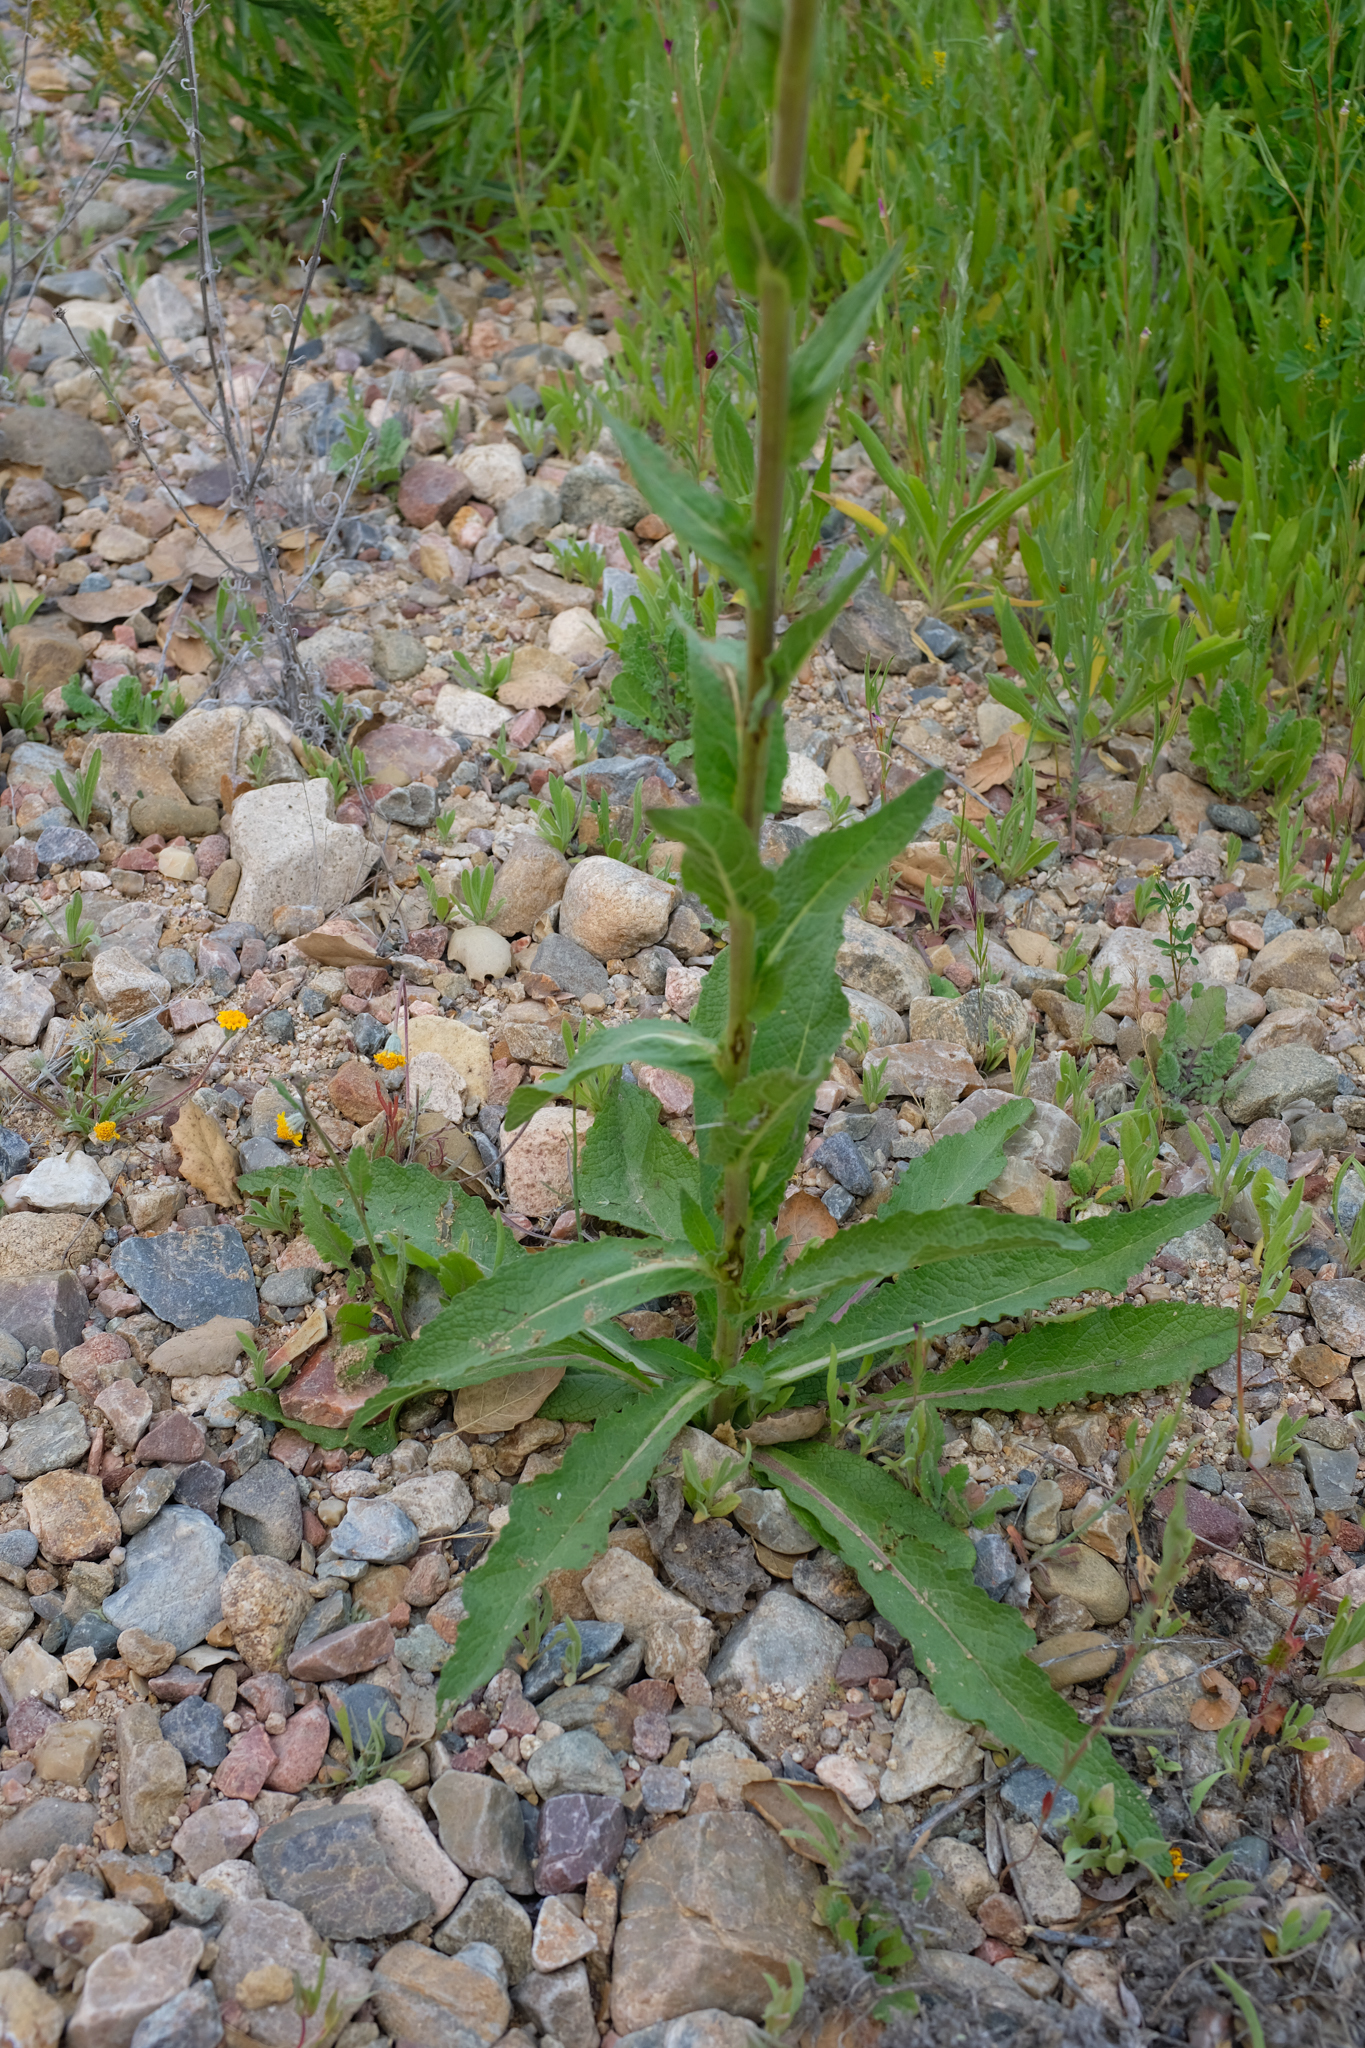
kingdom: Plantae
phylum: Tracheophyta
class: Magnoliopsida
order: Lamiales
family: Scrophulariaceae
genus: Verbascum
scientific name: Verbascum virgatum
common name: Twiggy mullein
